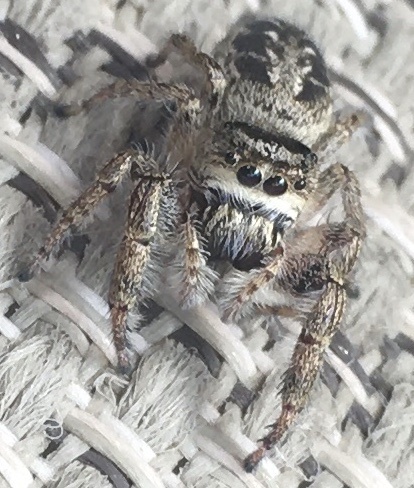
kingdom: Animalia
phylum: Arthropoda
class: Arachnida
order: Araneae
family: Salticidae
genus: Eris
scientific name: Eris militaris
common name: Bronze jumper
